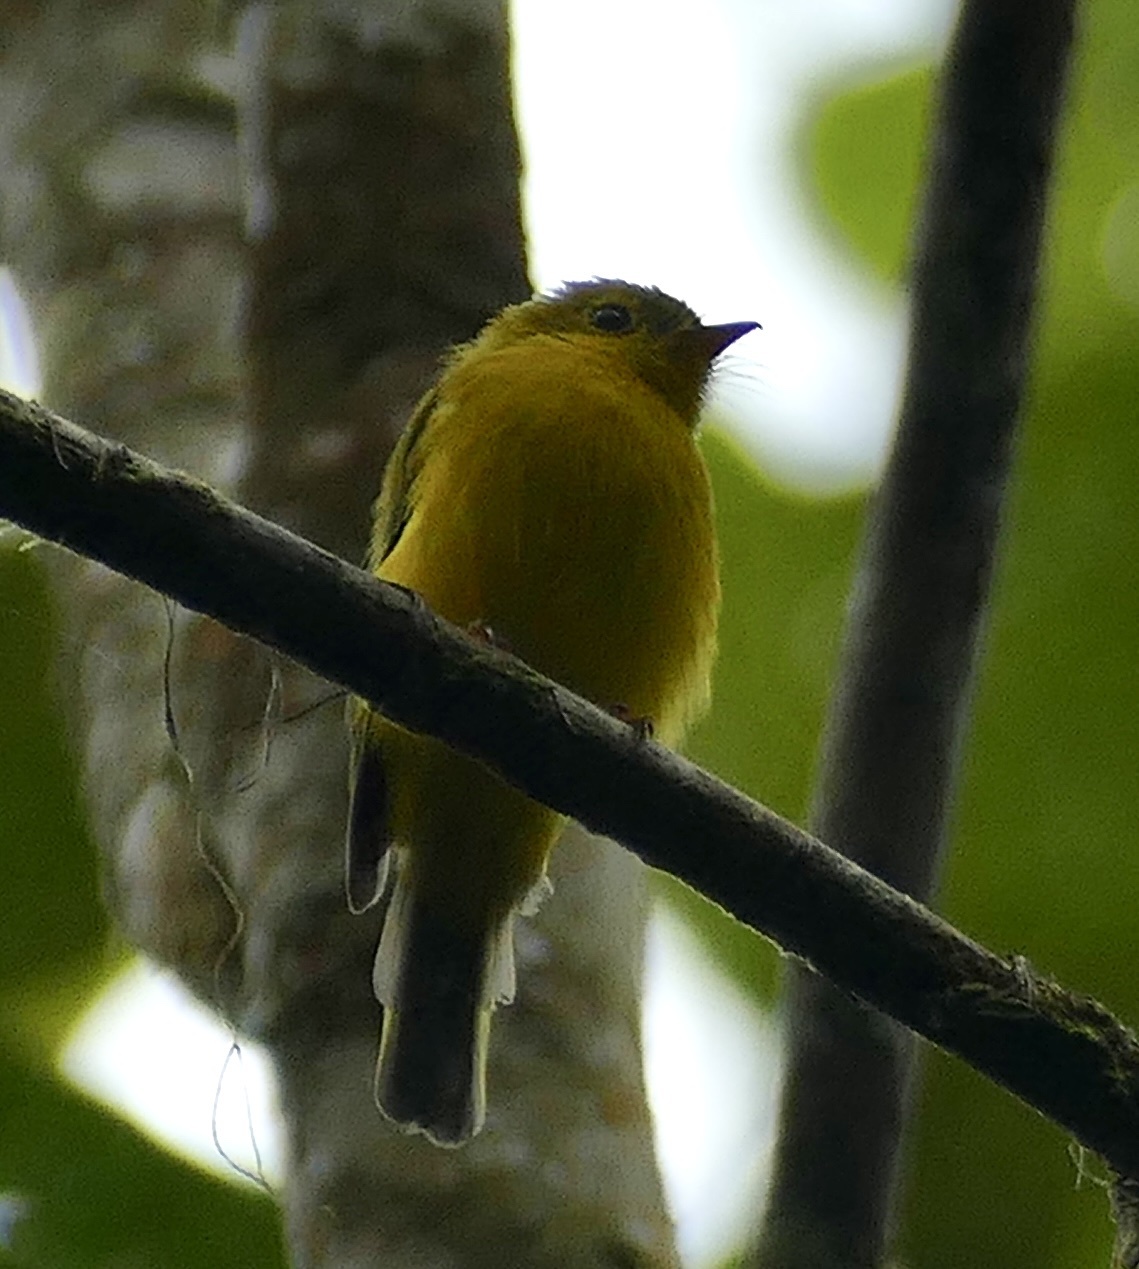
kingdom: Animalia
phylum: Chordata
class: Aves
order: Passeriformes
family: Stenostiridae
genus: Culicicapa
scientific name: Culicicapa helianthea
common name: Citrine canary-flycatcher
